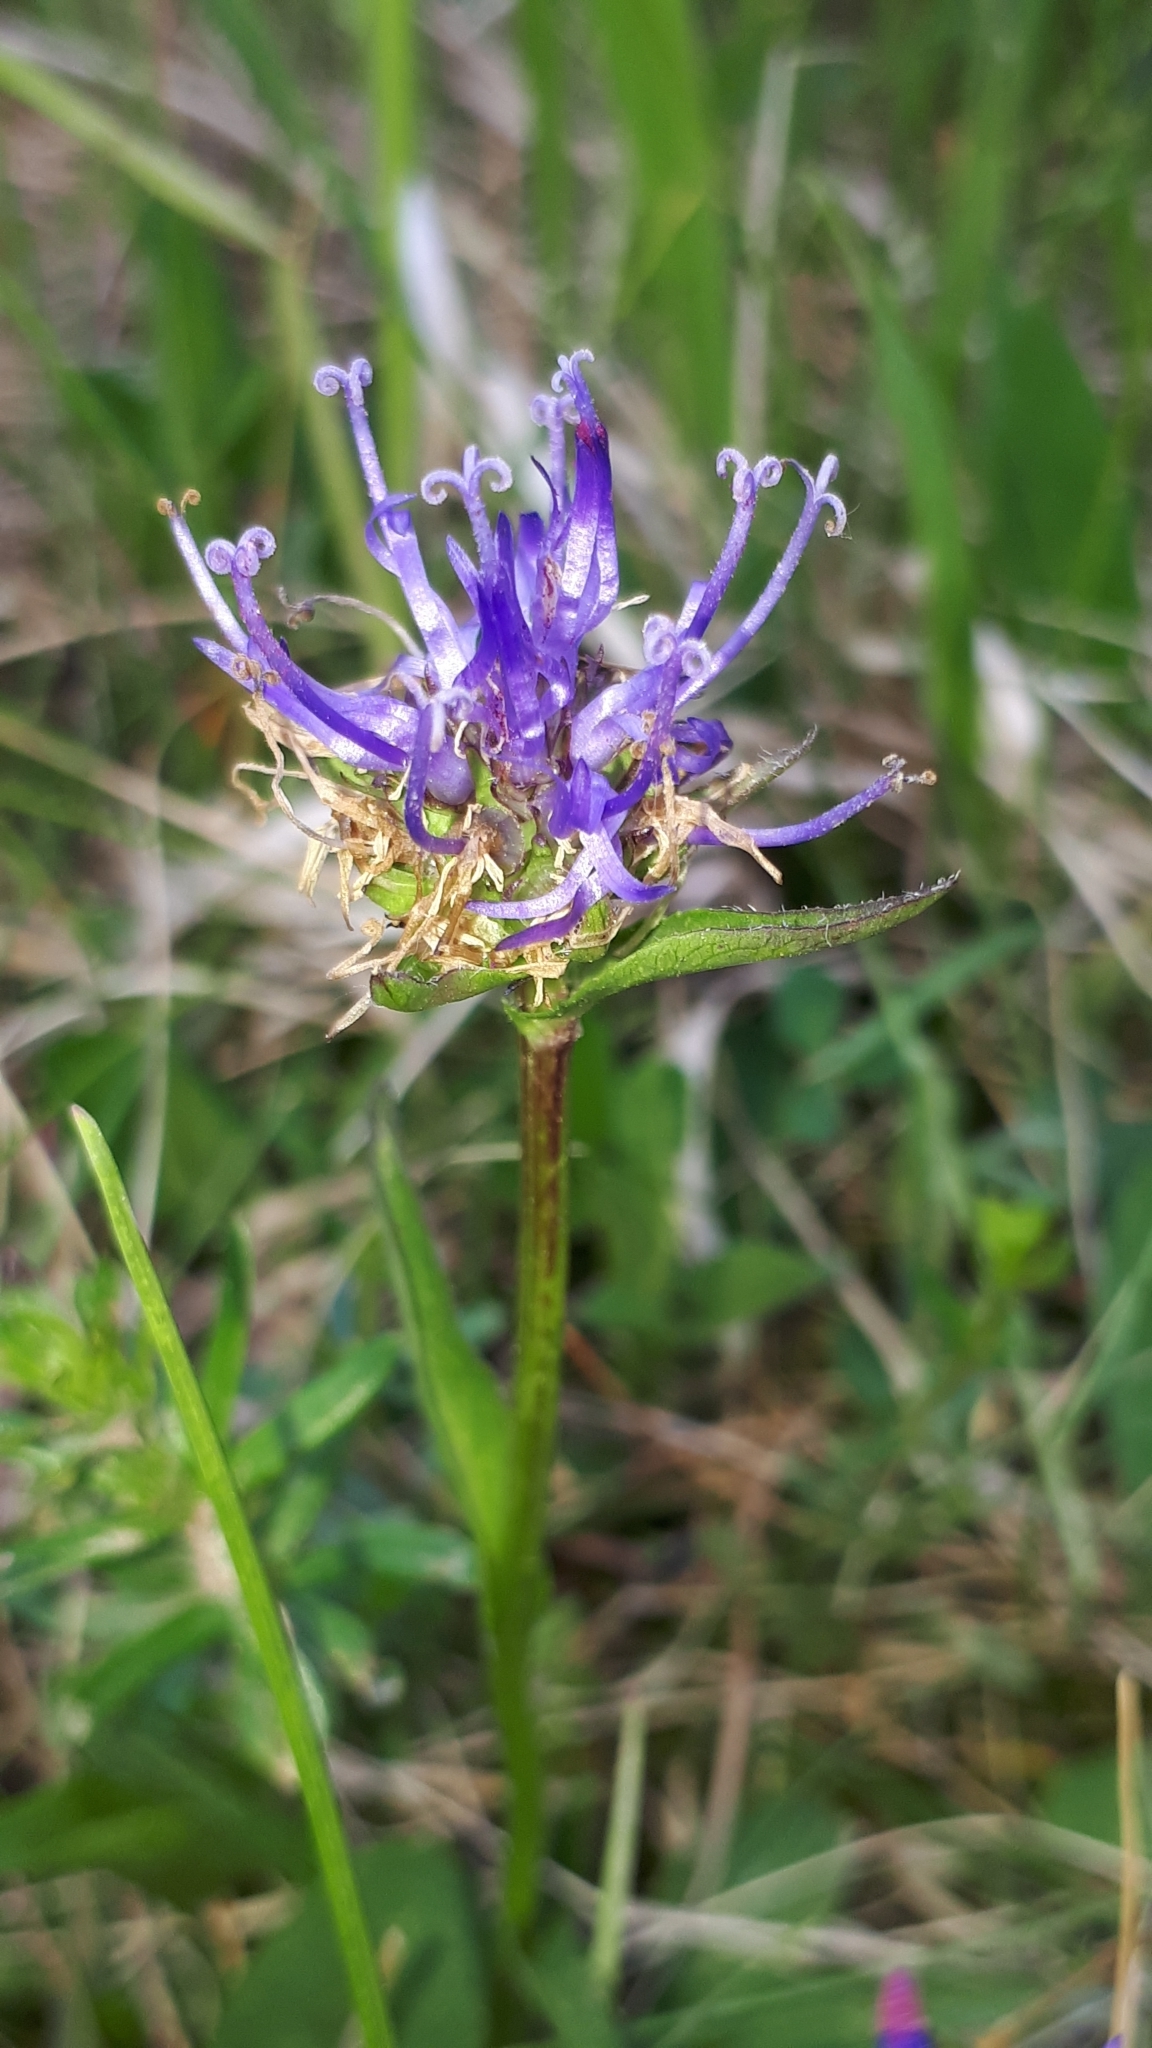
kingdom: Plantae
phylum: Tracheophyta
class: Magnoliopsida
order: Asterales
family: Campanulaceae
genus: Phyteuma
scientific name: Phyteuma orbiculare
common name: Round-headed rampion
